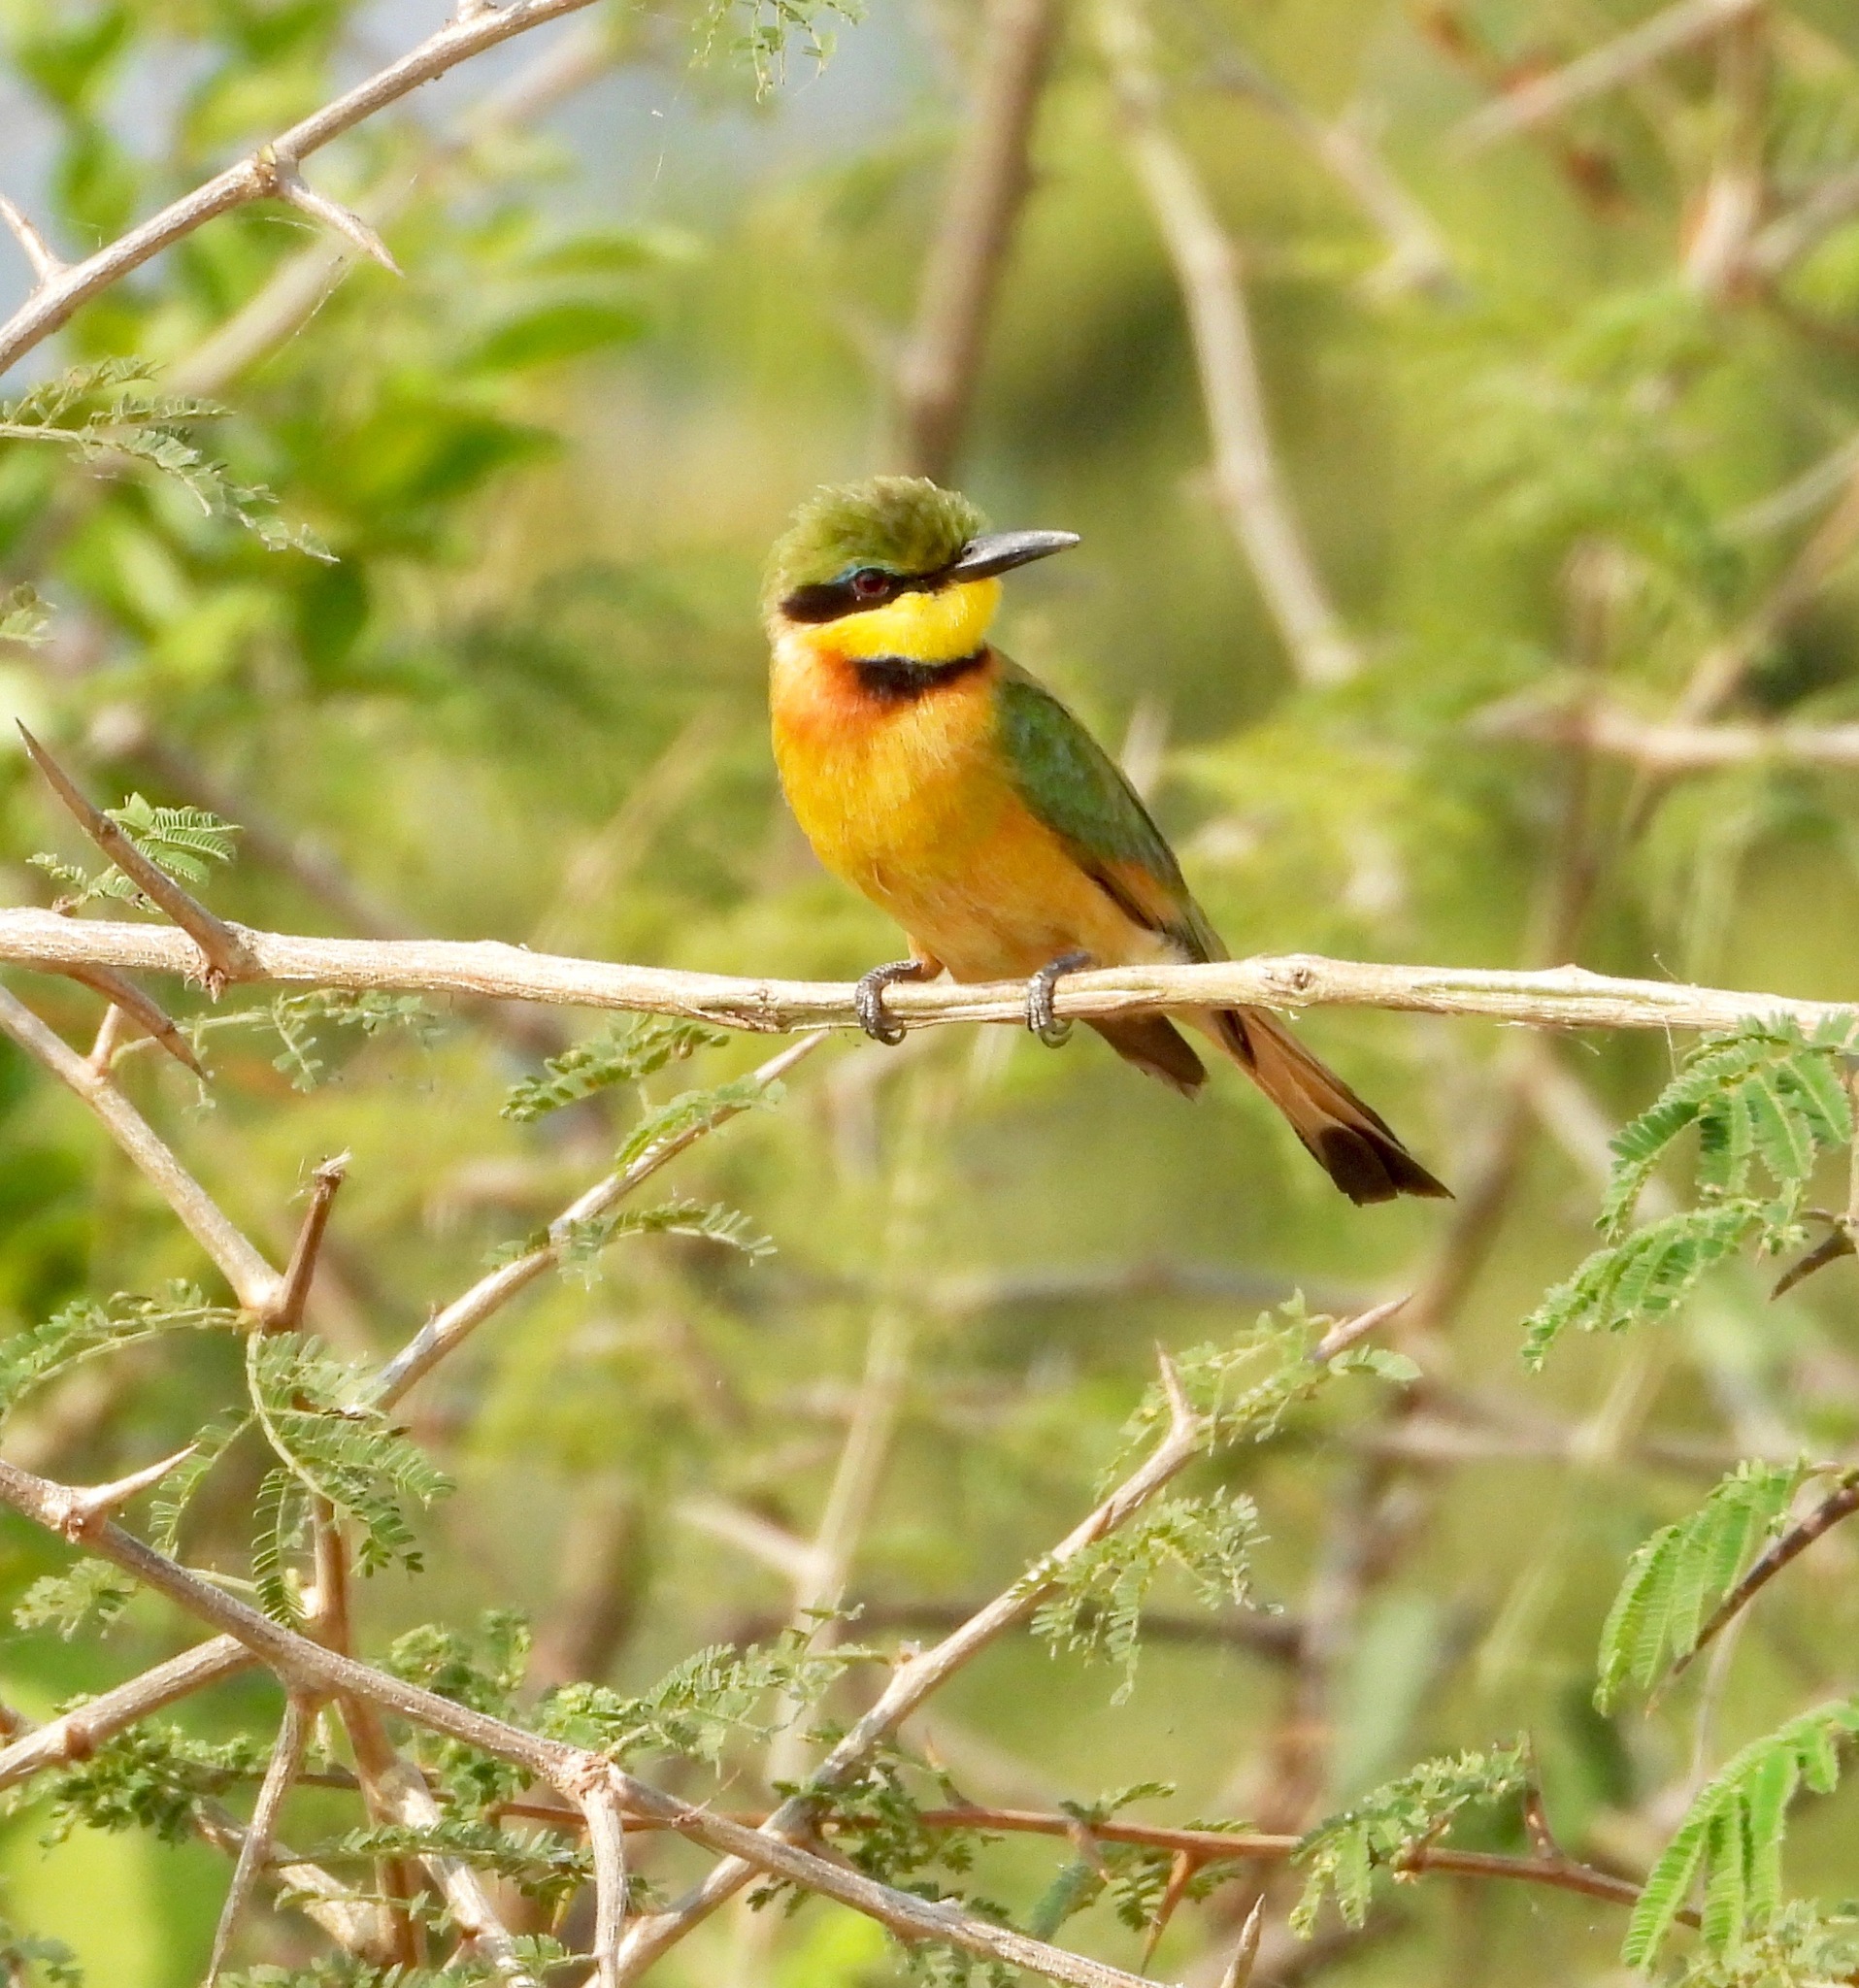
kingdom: Animalia
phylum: Chordata
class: Aves
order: Coraciiformes
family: Meropidae
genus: Merops
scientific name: Merops pusillus
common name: Little bee-eater
